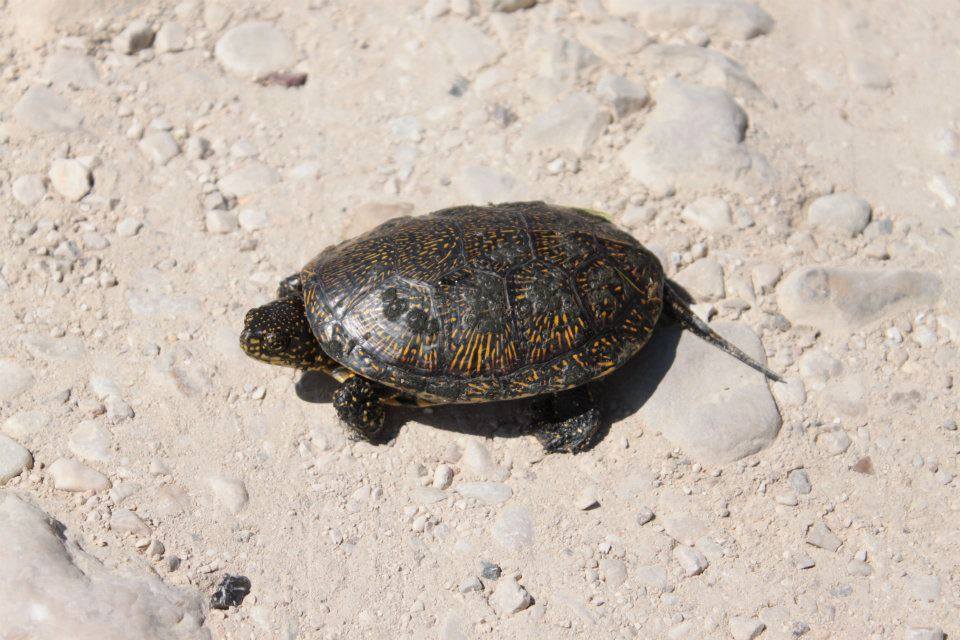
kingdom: Animalia
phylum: Chordata
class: Testudines
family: Emydidae
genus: Emys
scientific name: Emys orbicularis
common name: European pond turtle
